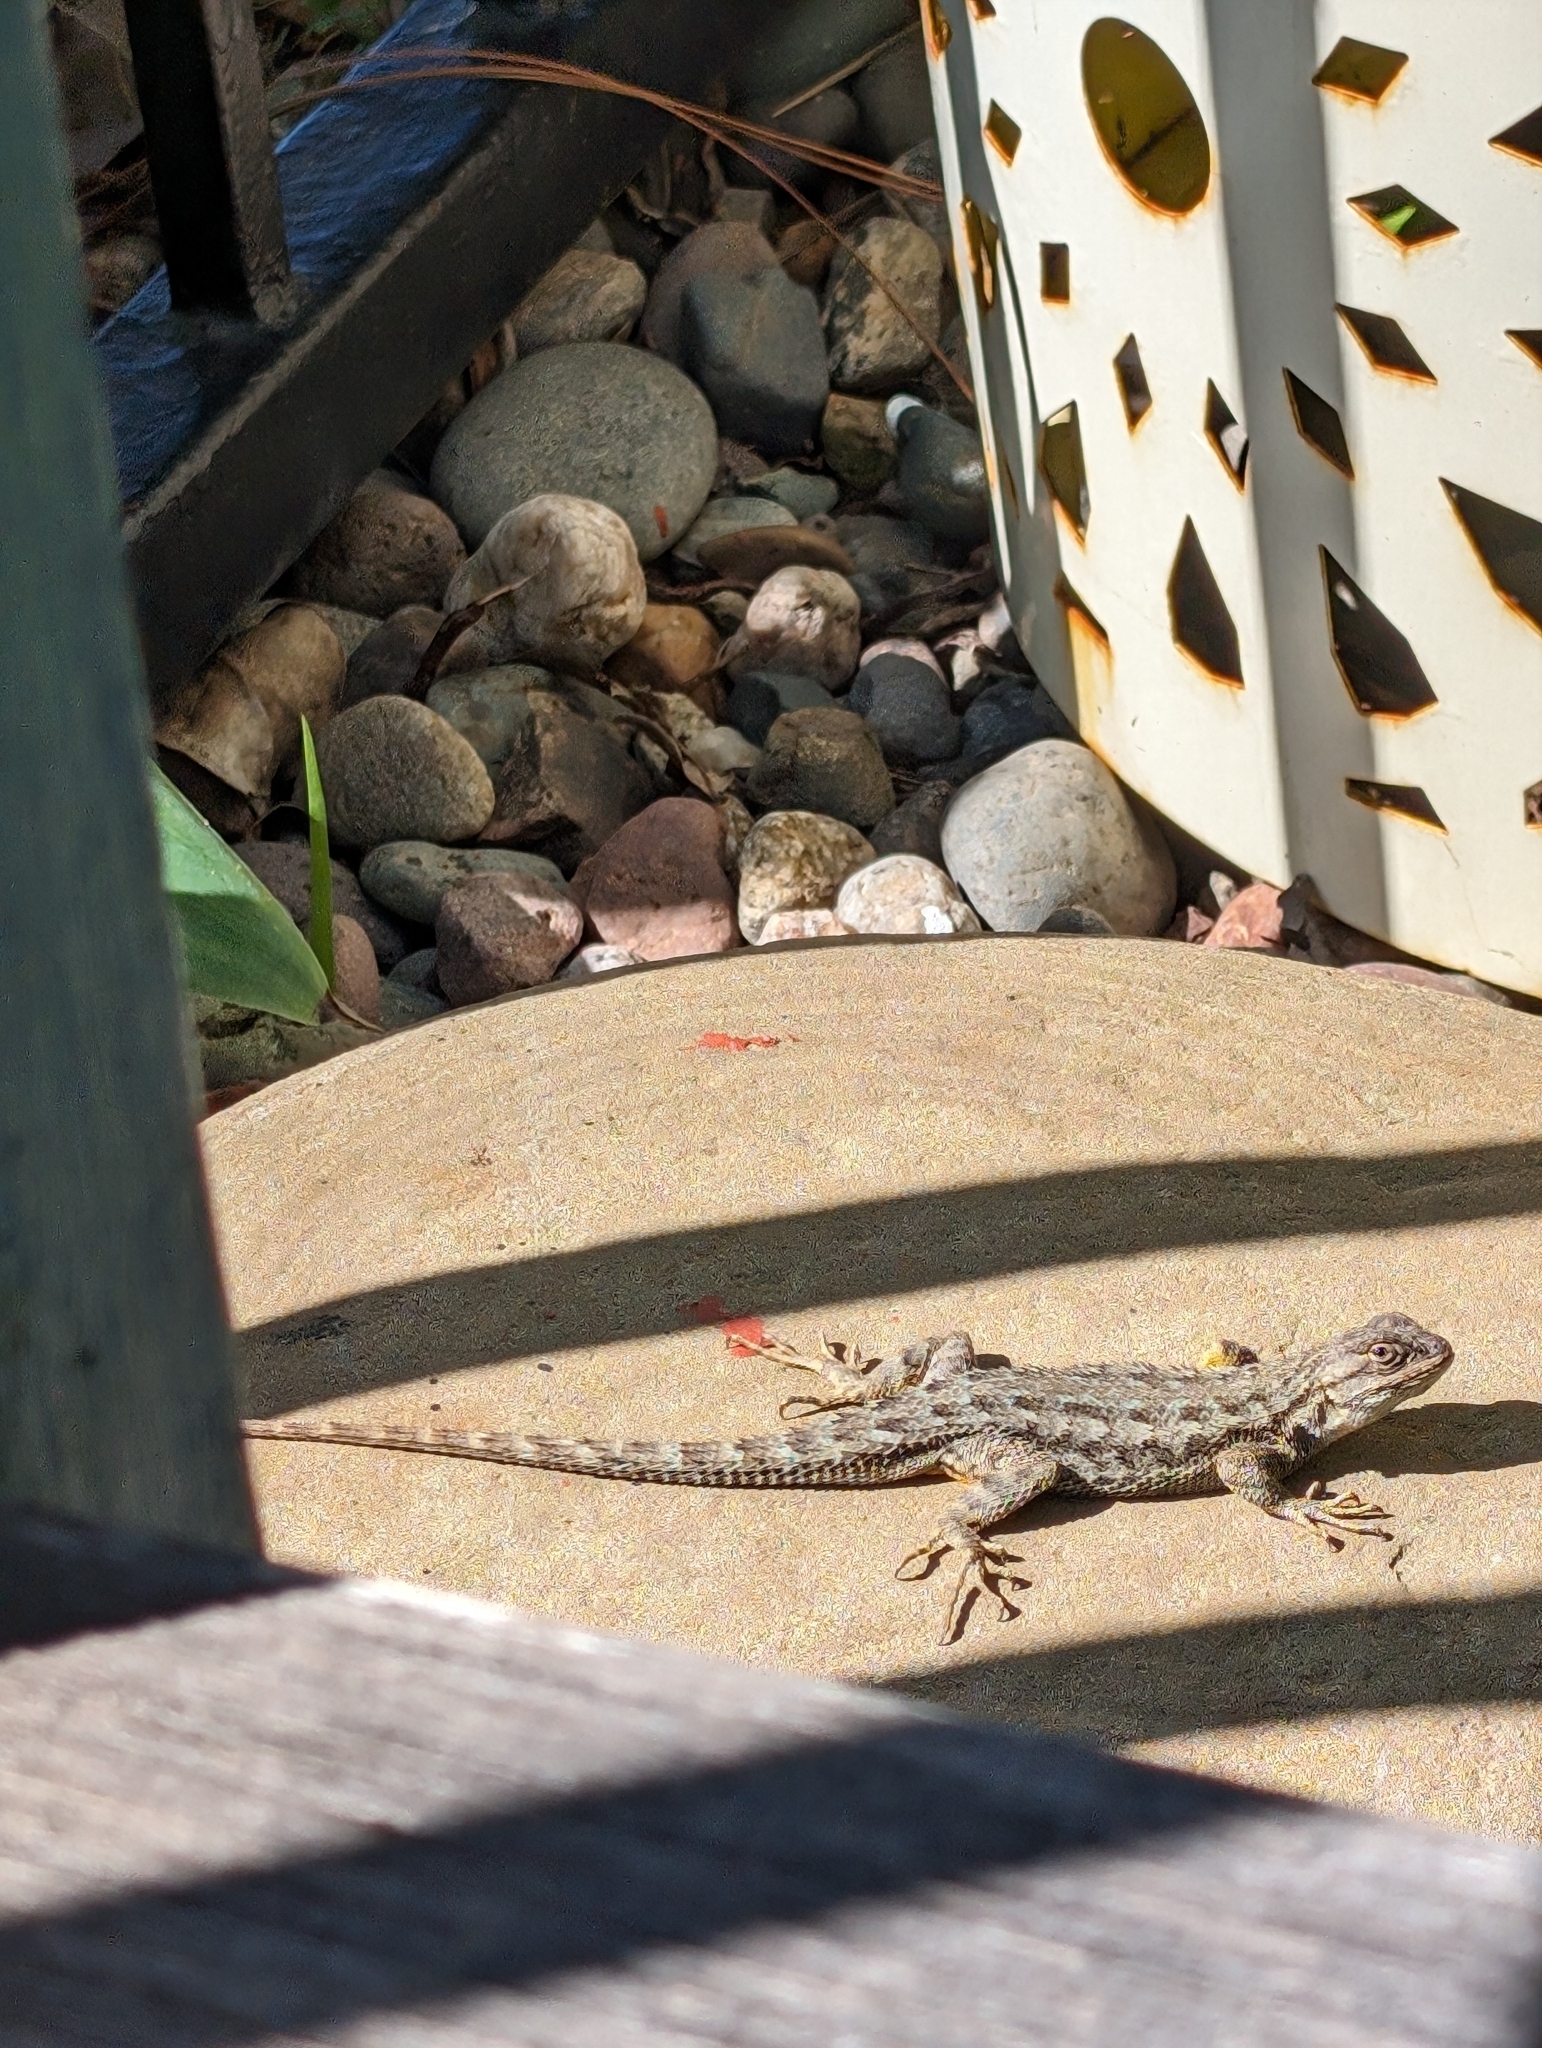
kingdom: Animalia
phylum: Chordata
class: Squamata
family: Phrynosomatidae
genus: Sceloporus
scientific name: Sceloporus occidentalis
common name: Western fence lizard
